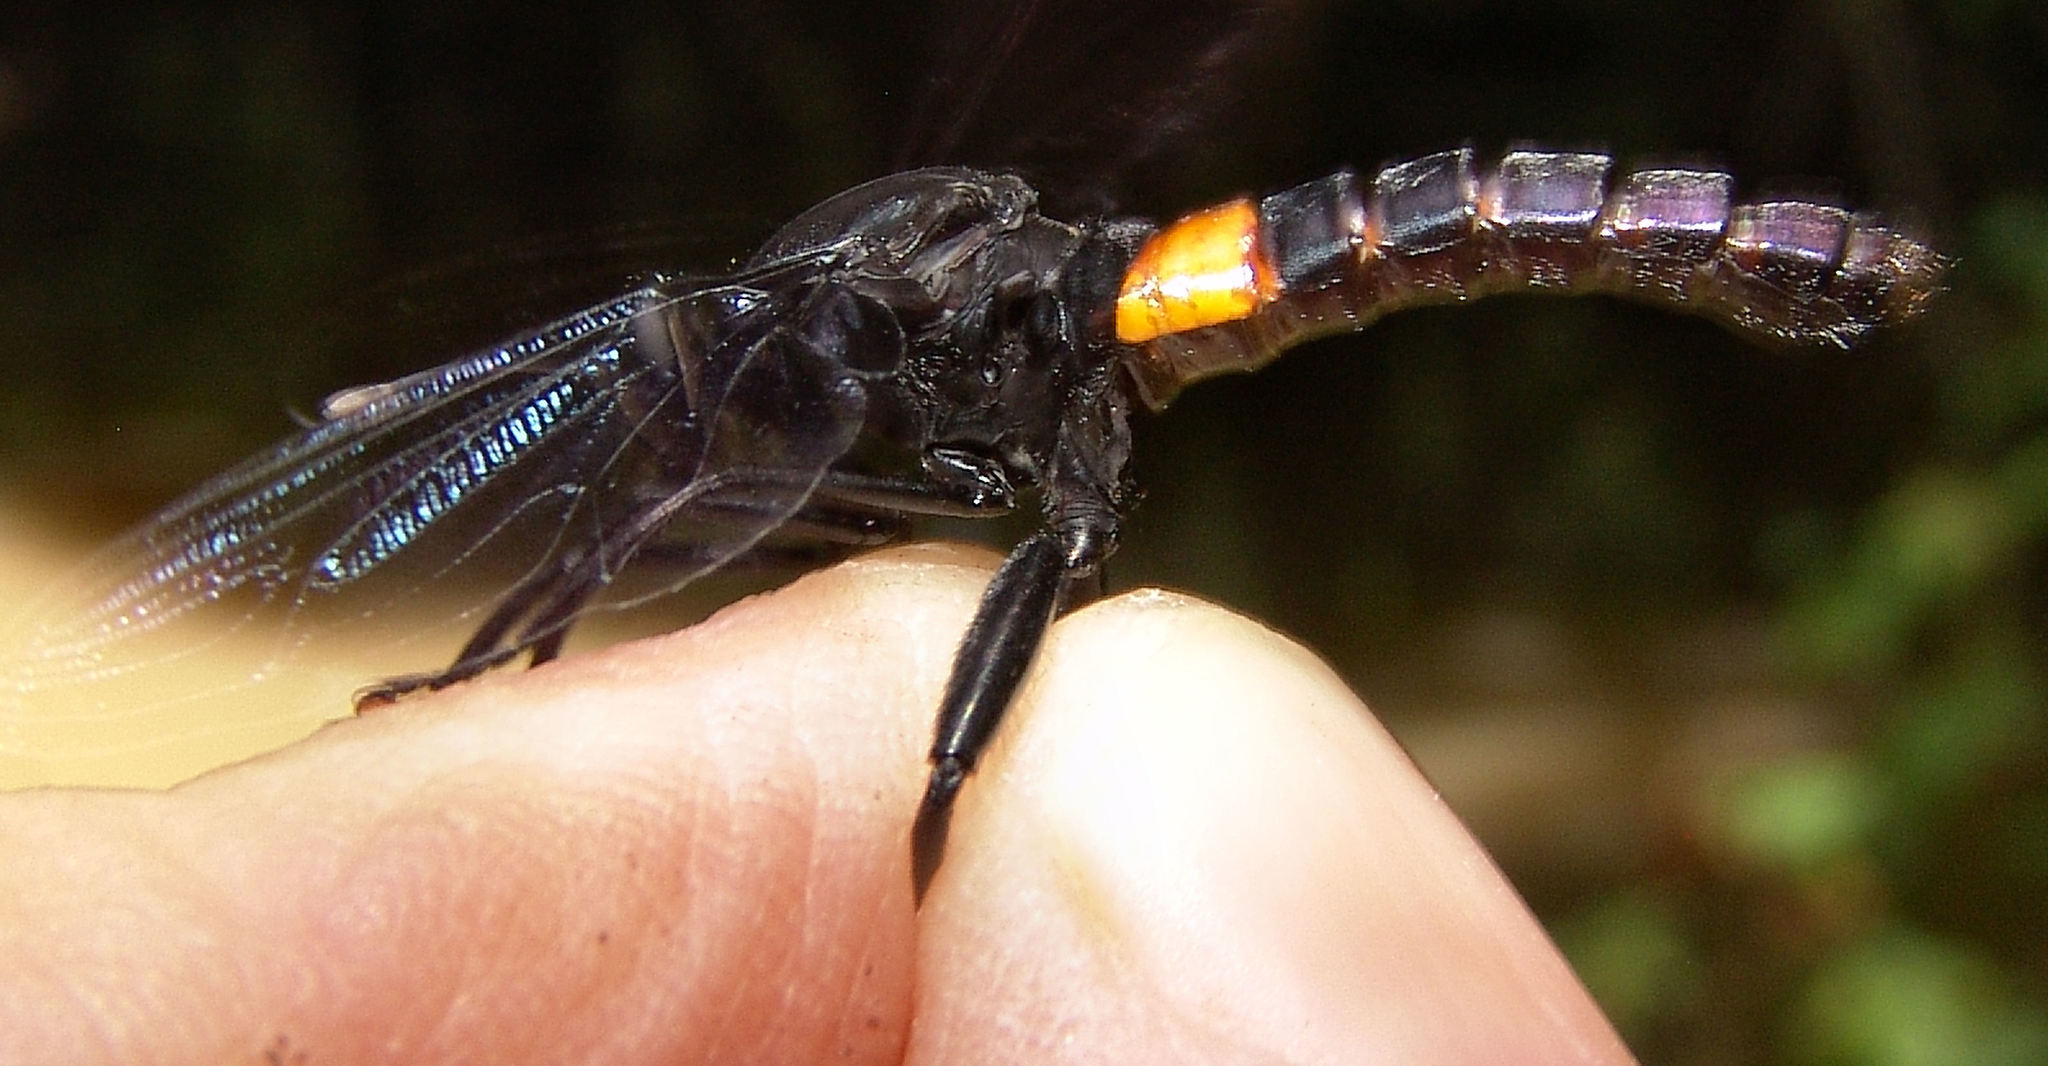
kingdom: Animalia
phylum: Arthropoda
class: Insecta
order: Diptera
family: Mydidae
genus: Mydas
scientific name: Mydas clavatus
